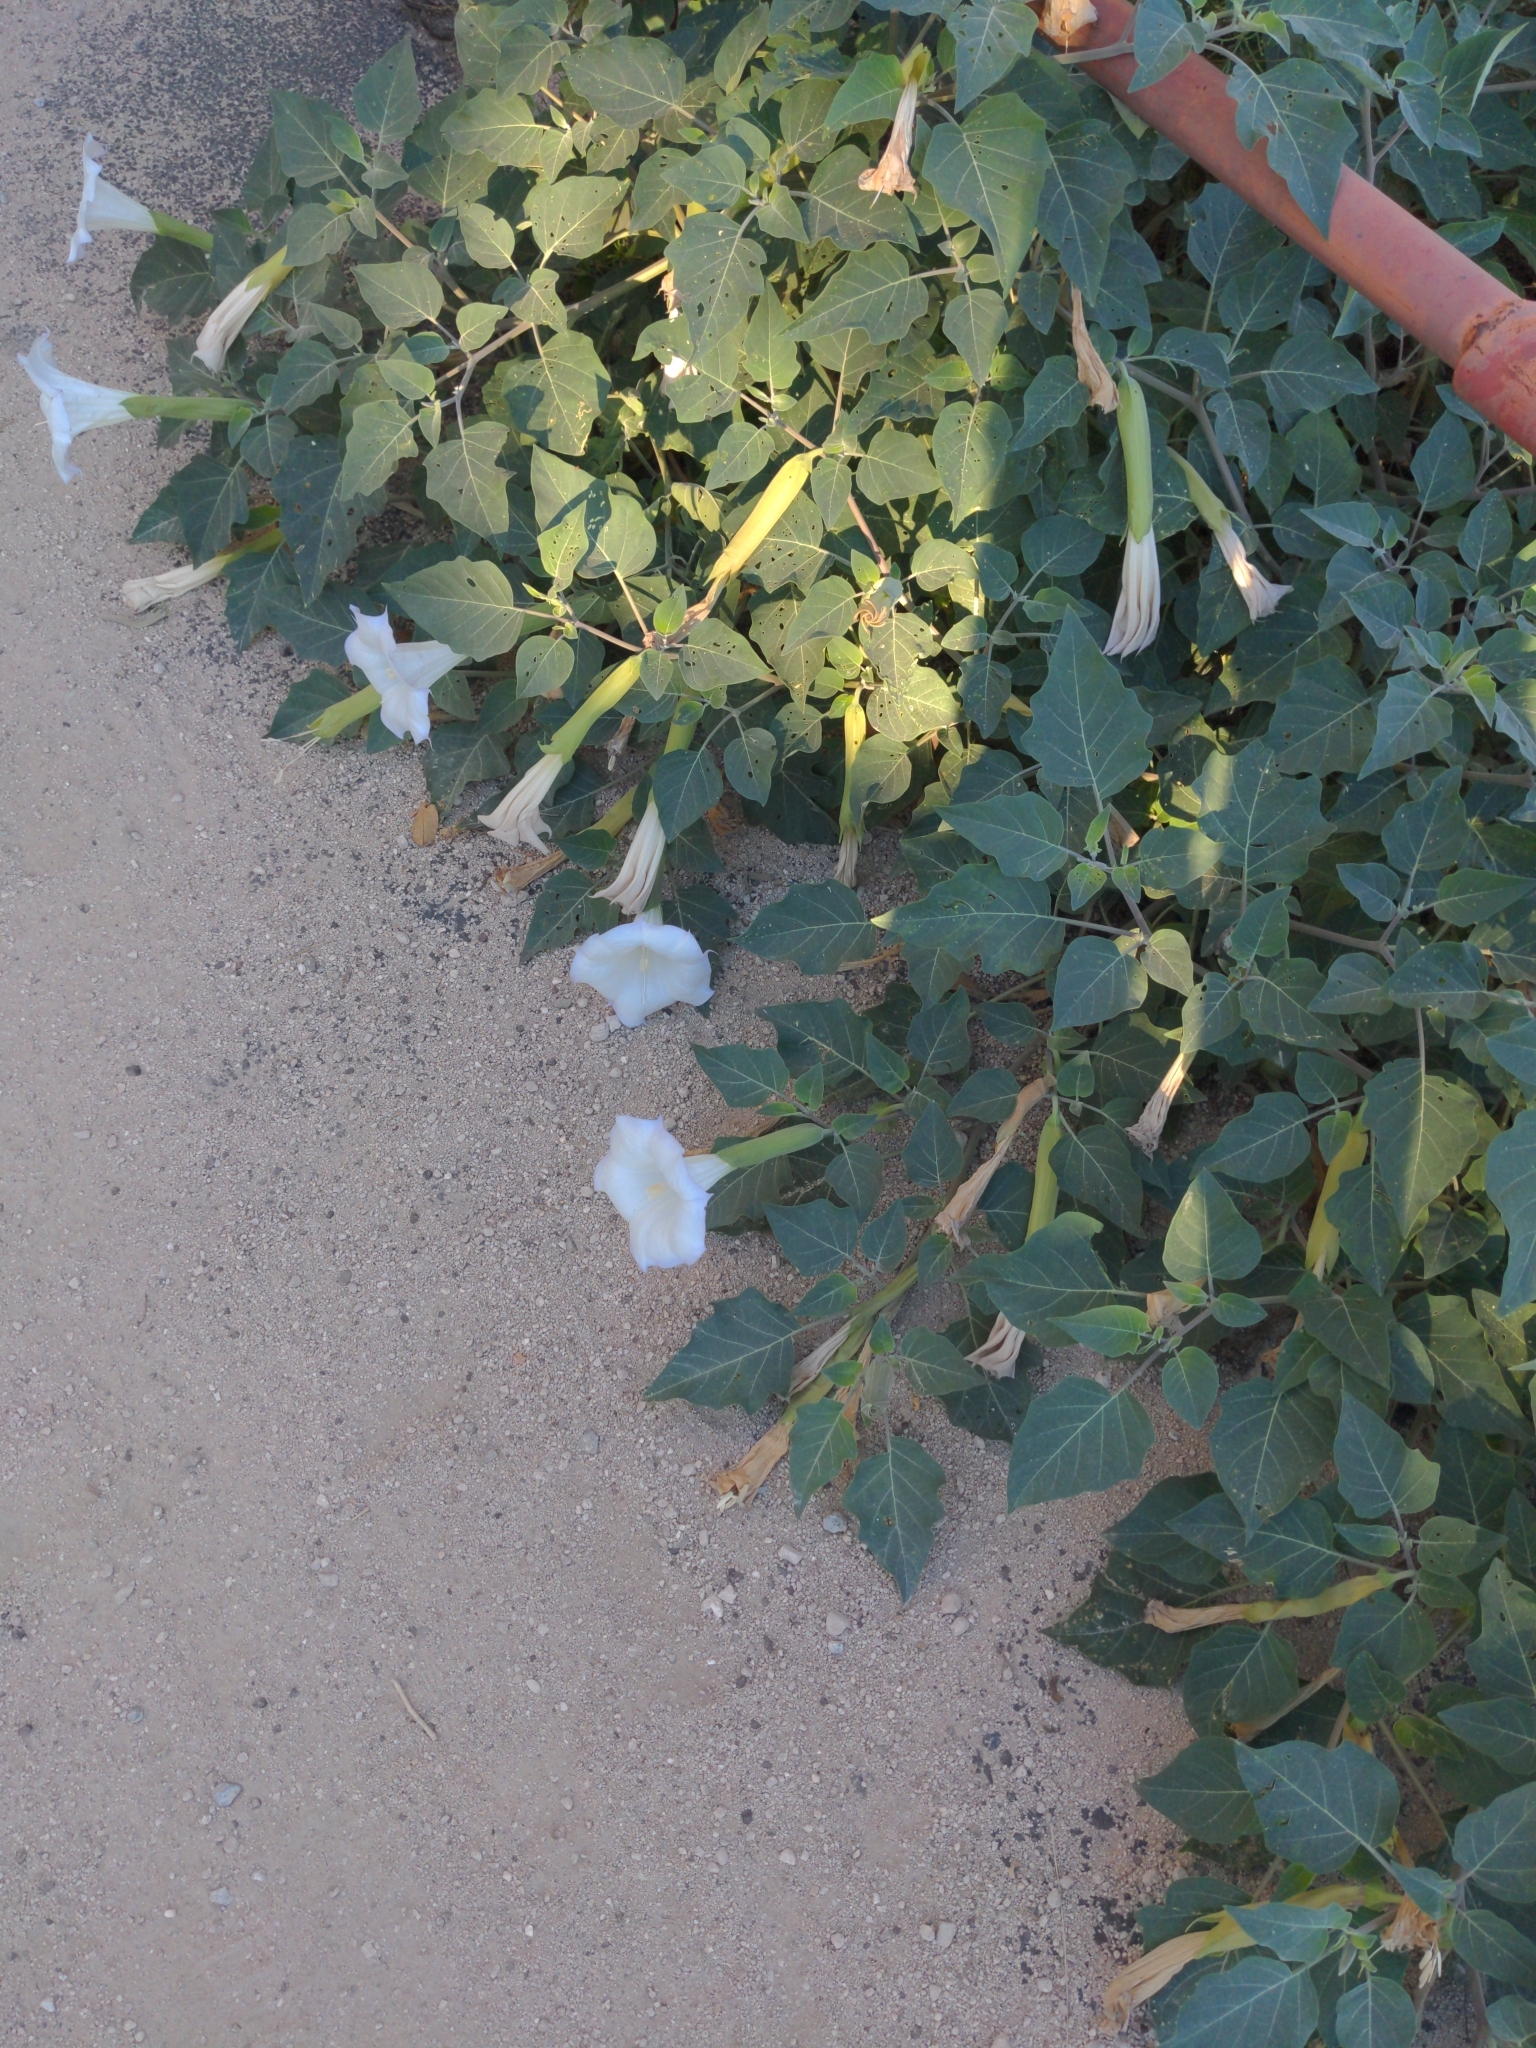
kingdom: Plantae
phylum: Tracheophyta
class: Magnoliopsida
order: Solanales
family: Solanaceae
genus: Datura
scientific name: Datura wrightii
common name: Sacred thorn-apple
